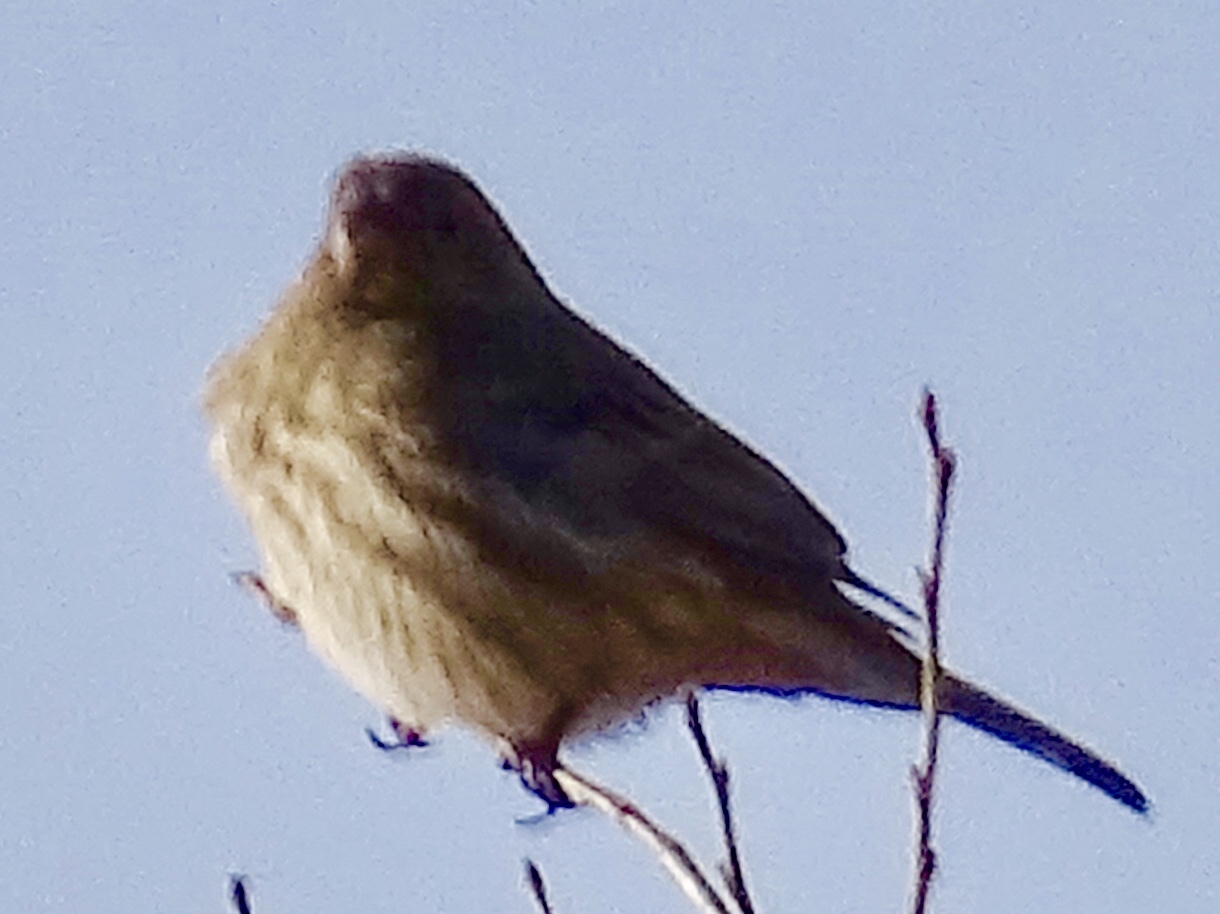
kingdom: Animalia
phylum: Chordata
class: Aves
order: Passeriformes
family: Fringillidae
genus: Haemorhous
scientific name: Haemorhous mexicanus
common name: House finch
